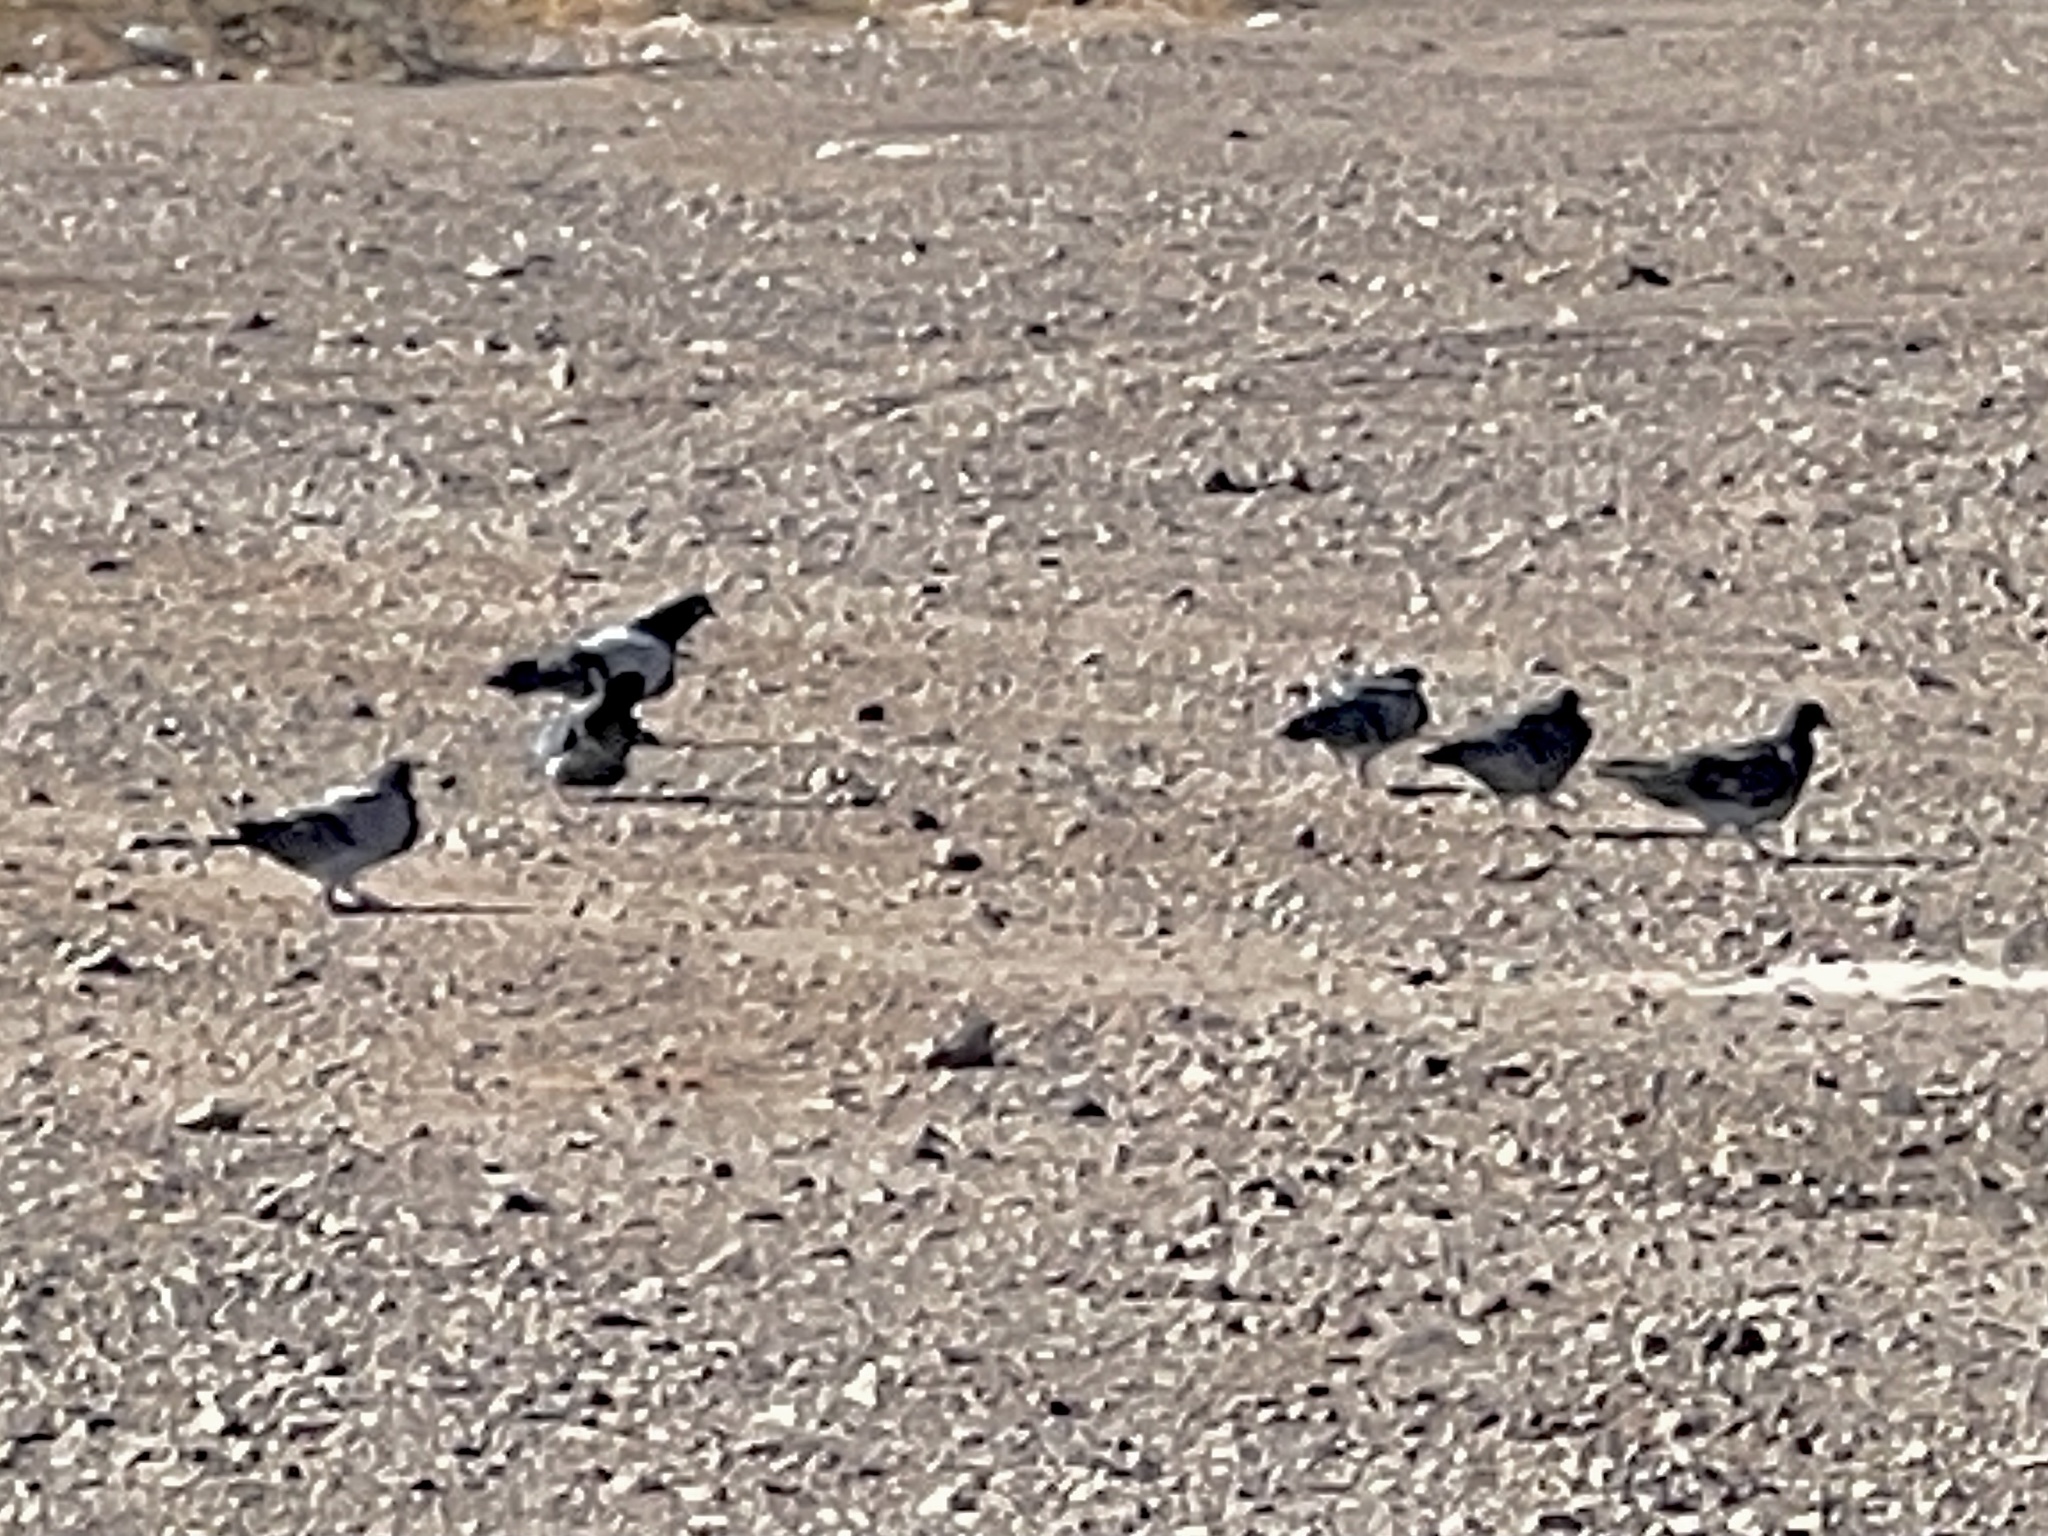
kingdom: Animalia
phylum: Chordata
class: Aves
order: Columbiformes
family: Columbidae
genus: Columba
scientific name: Columba livia
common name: Rock pigeon
